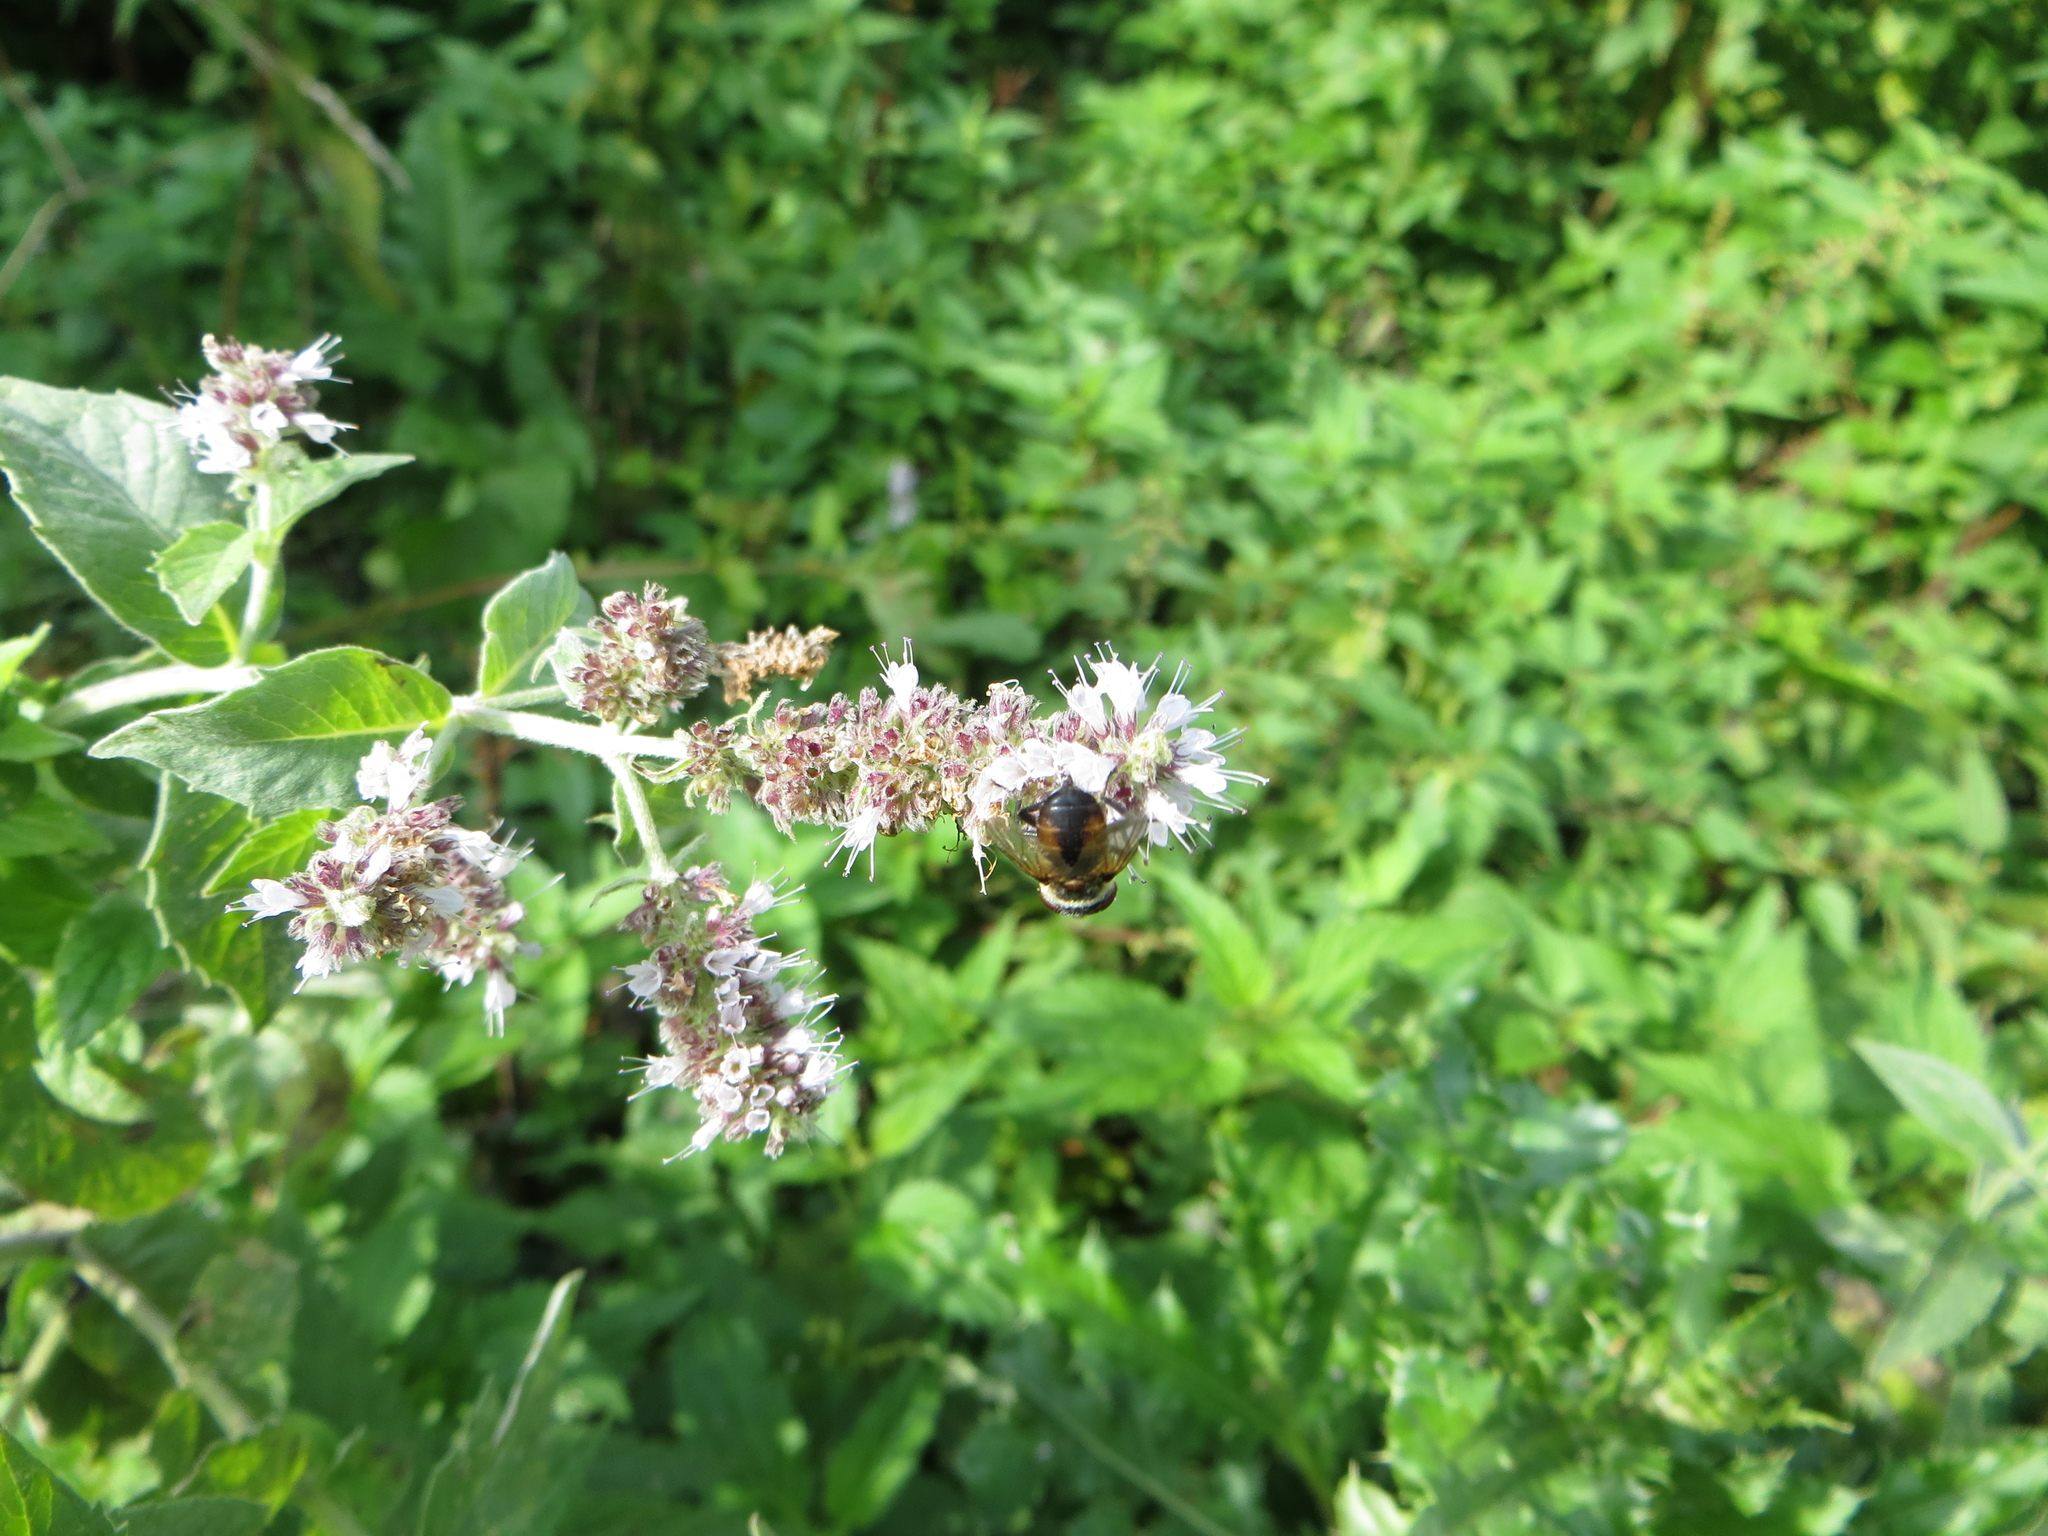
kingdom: Animalia
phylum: Arthropoda
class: Insecta
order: Diptera
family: Tachinidae
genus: Phasia
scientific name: Phasia hemiptera
